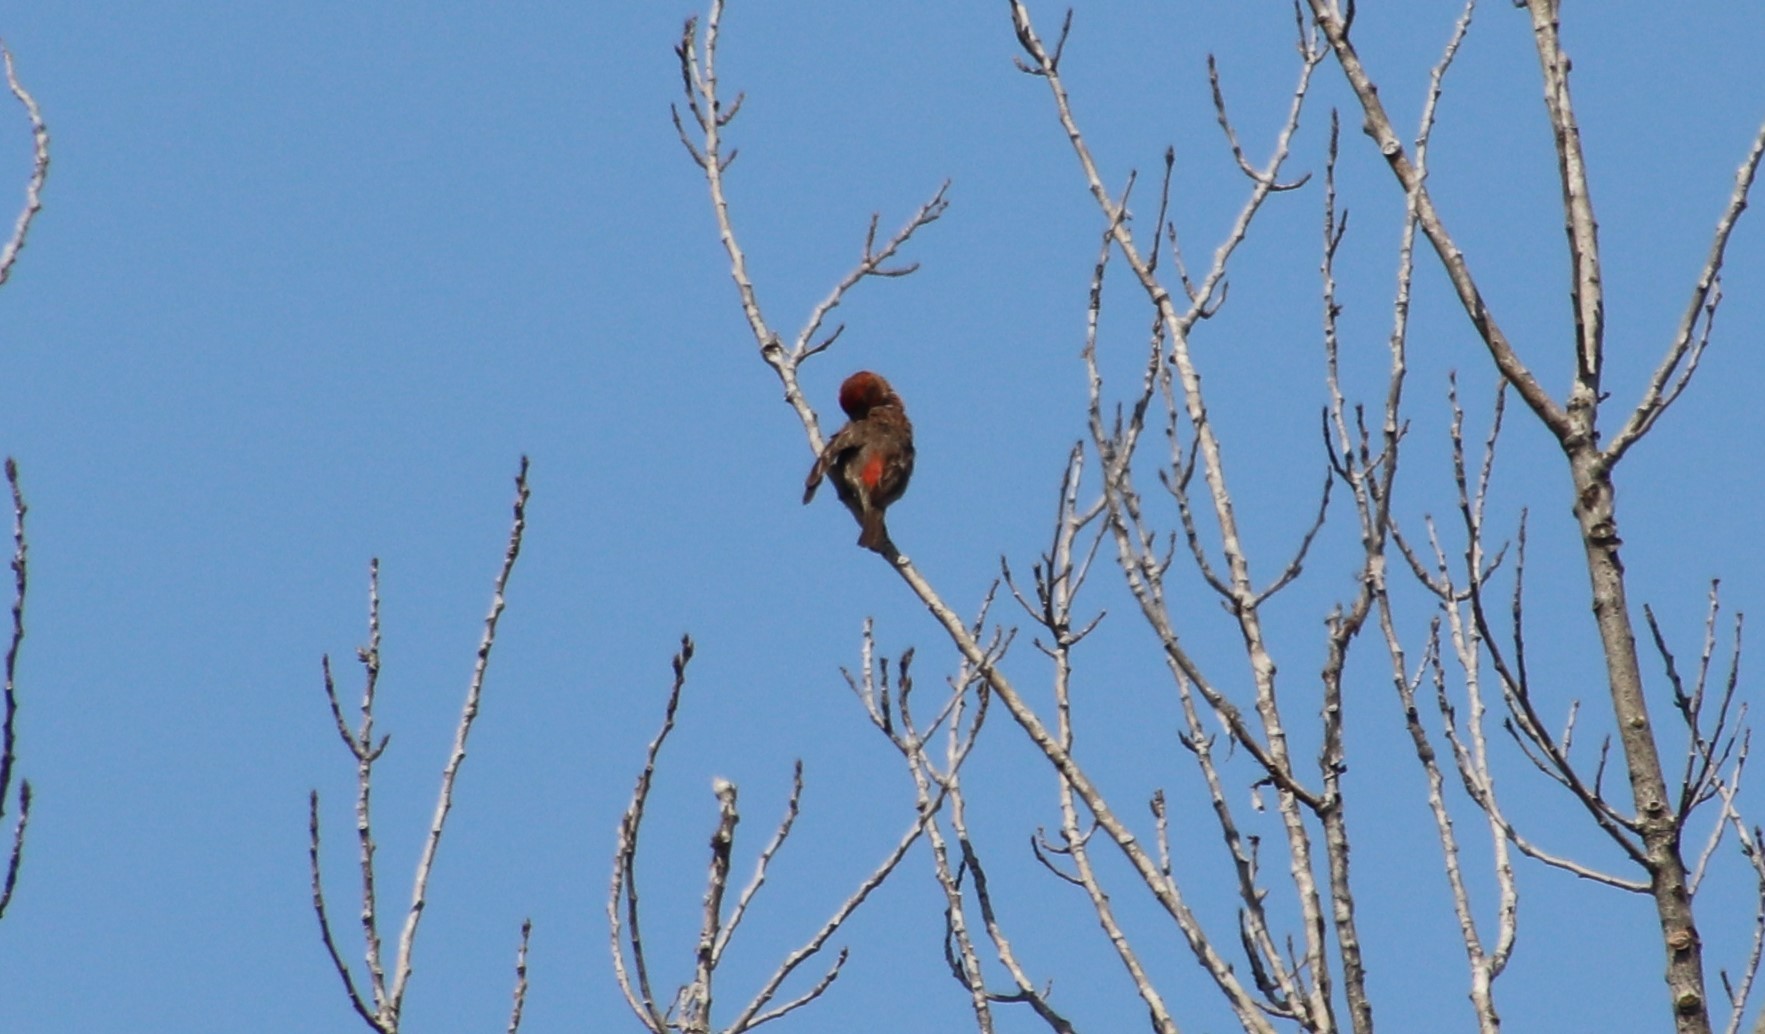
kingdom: Animalia
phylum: Chordata
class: Aves
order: Passeriformes
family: Fringillidae
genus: Haemorhous
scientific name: Haemorhous mexicanus
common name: House finch
